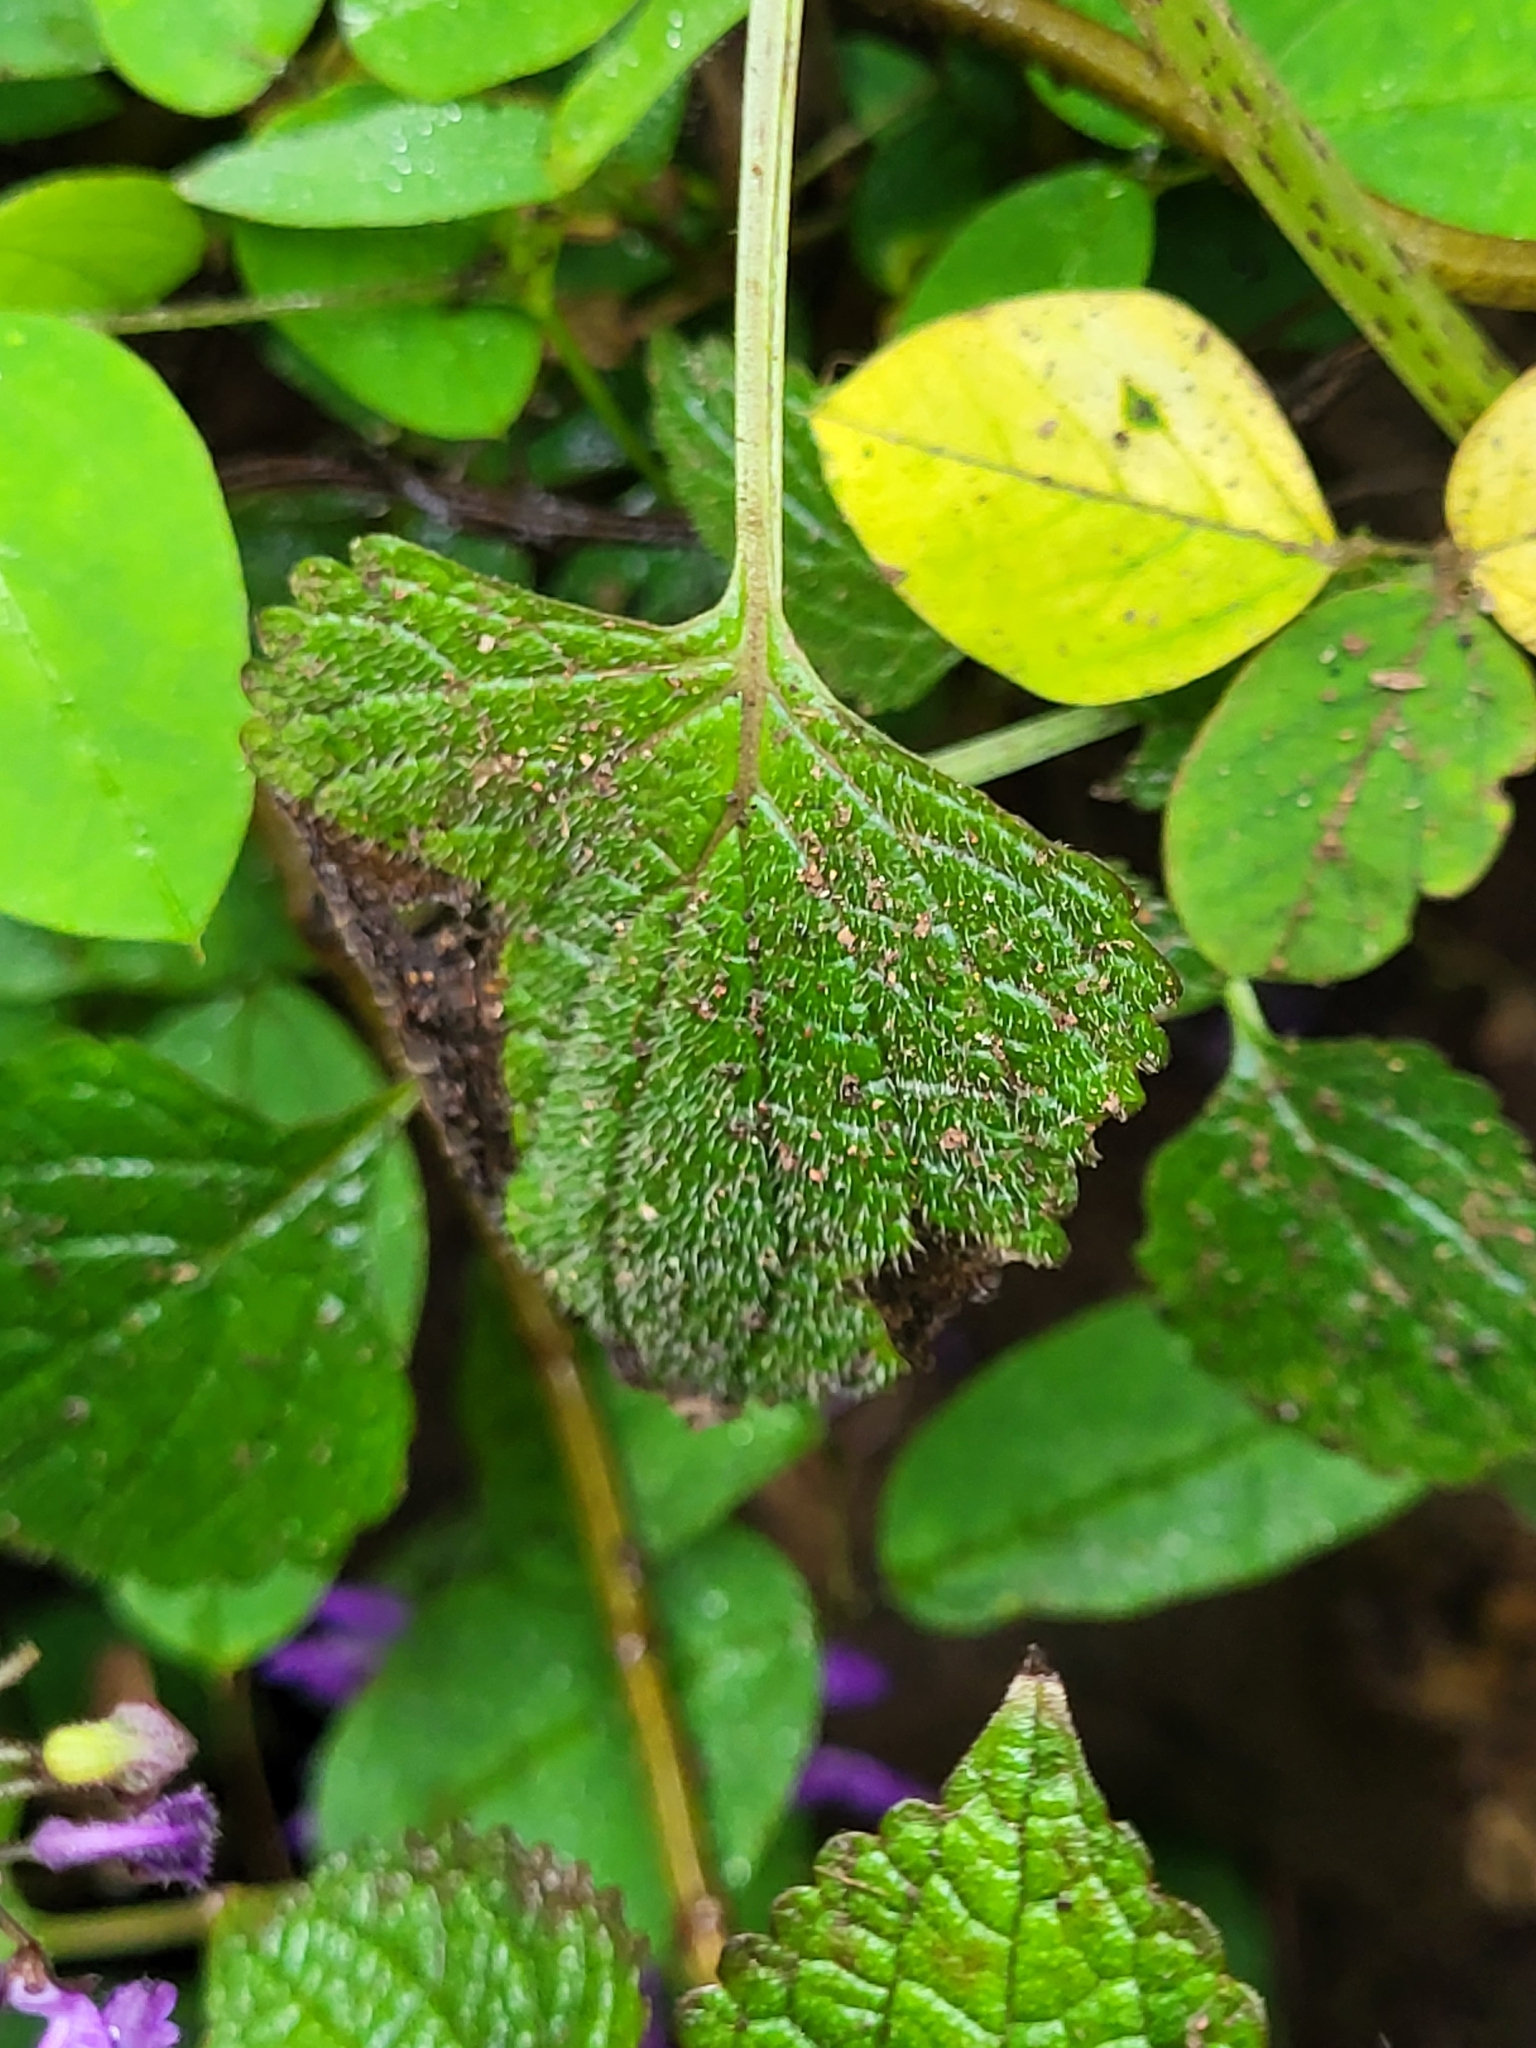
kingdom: Plantae
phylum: Tracheophyta
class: Magnoliopsida
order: Lamiales
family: Lamiaceae
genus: Coleus
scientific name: Coleus bojeri
